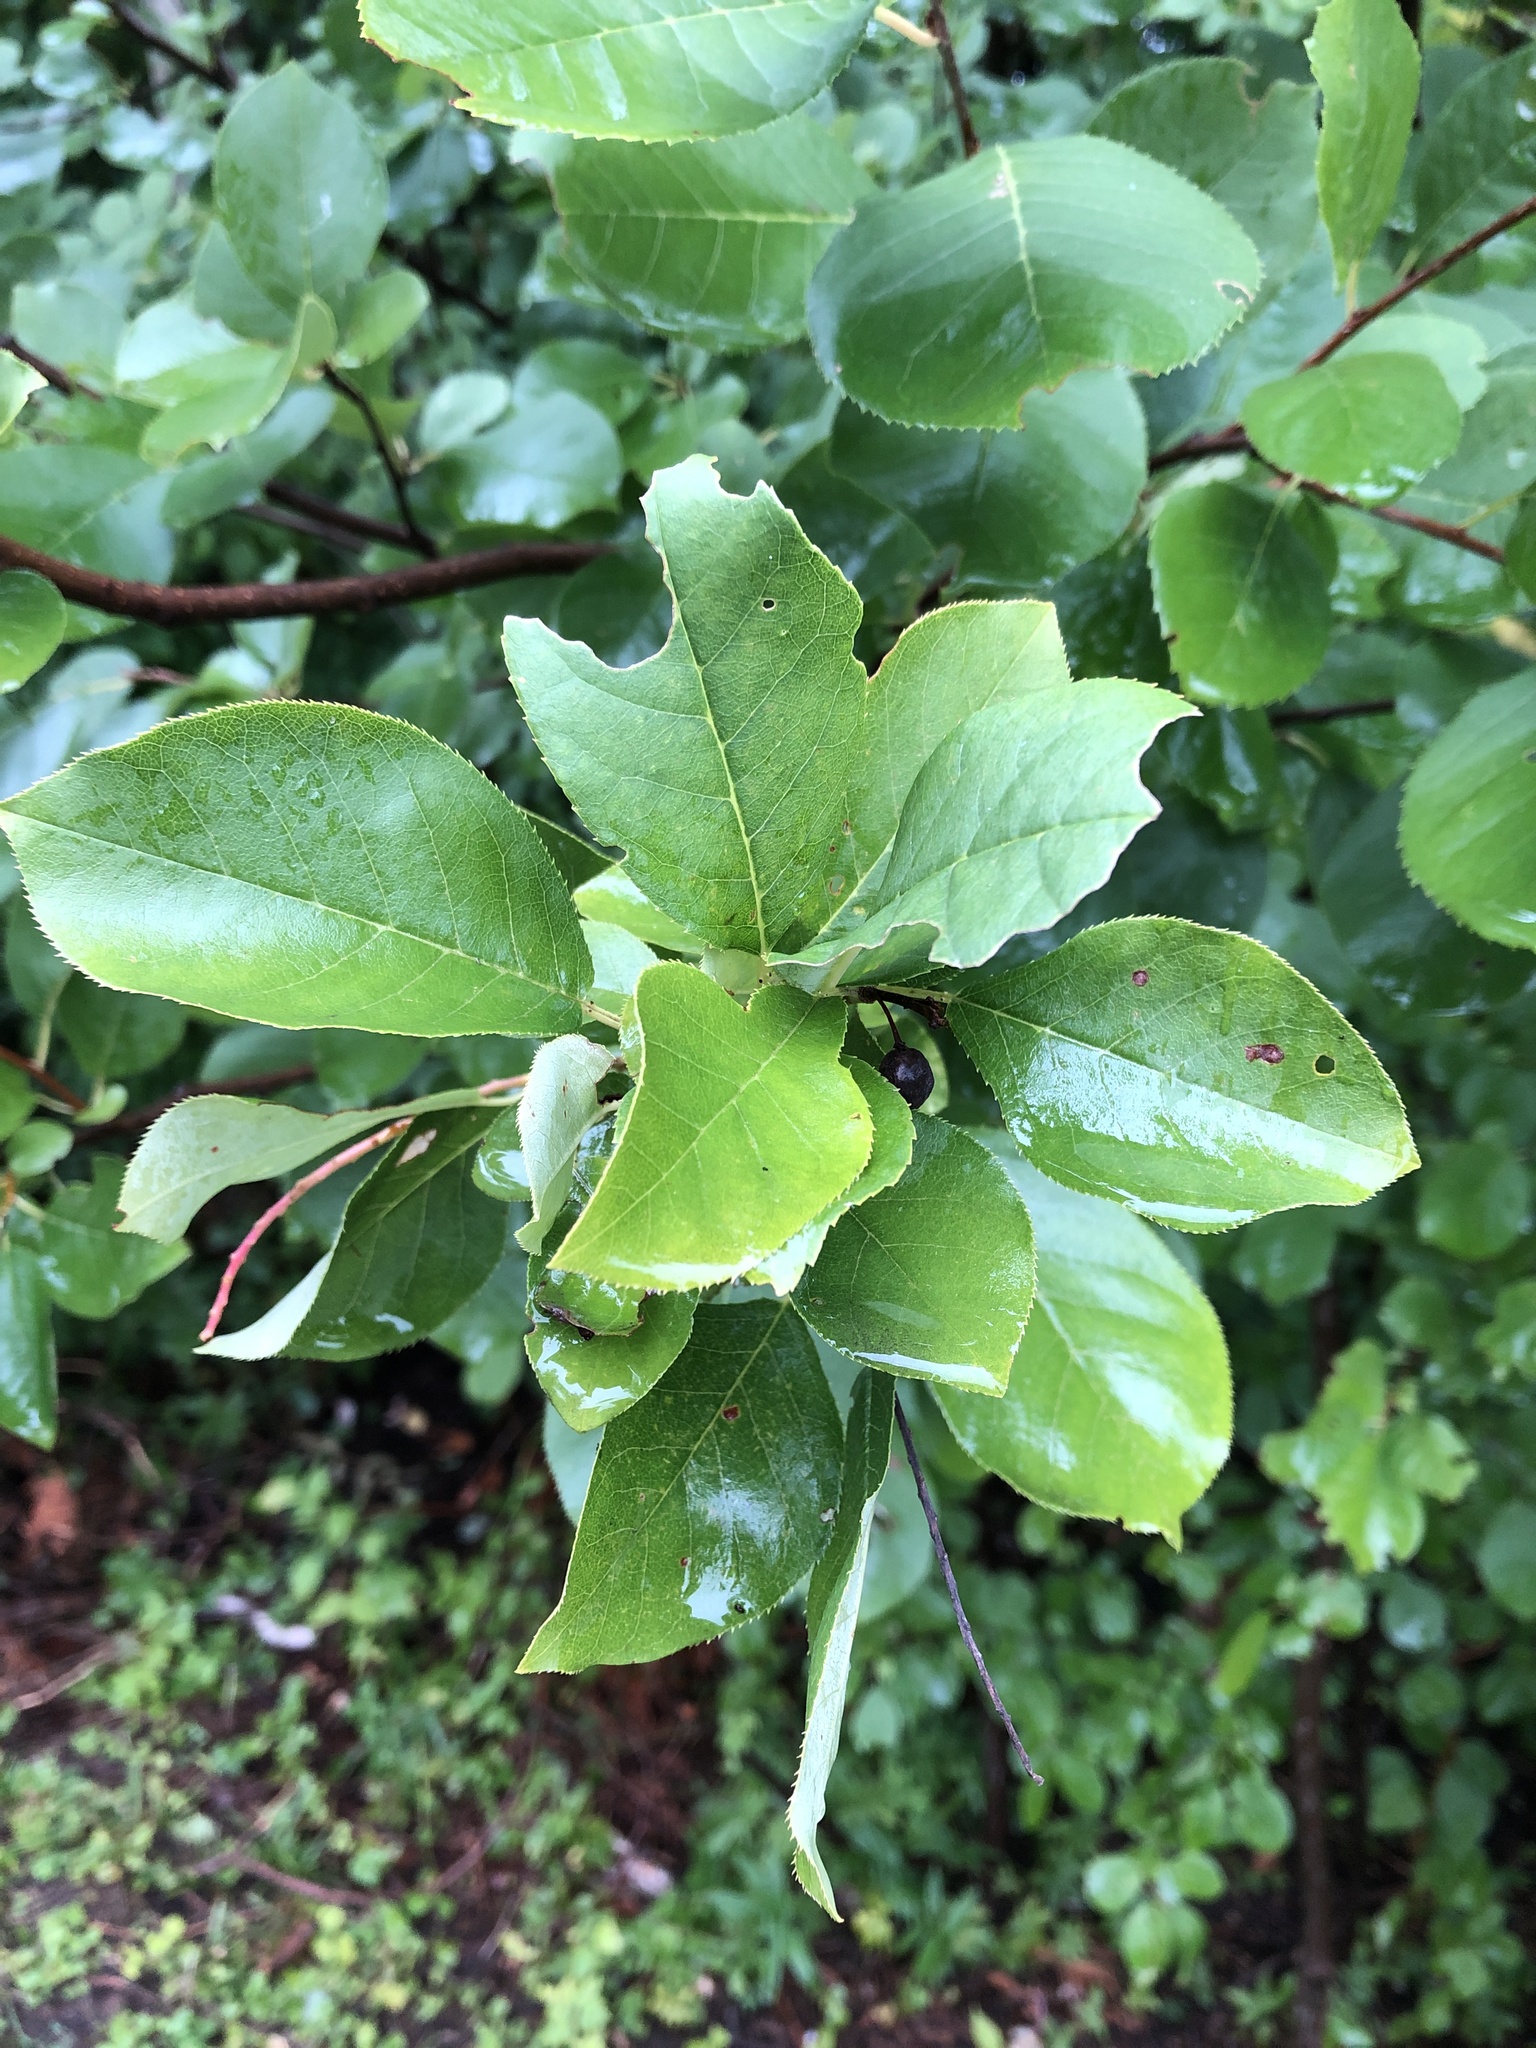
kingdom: Plantae
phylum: Tracheophyta
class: Magnoliopsida
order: Rosales
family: Rosaceae
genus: Prunus
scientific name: Prunus virginiana
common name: Chokecherry
